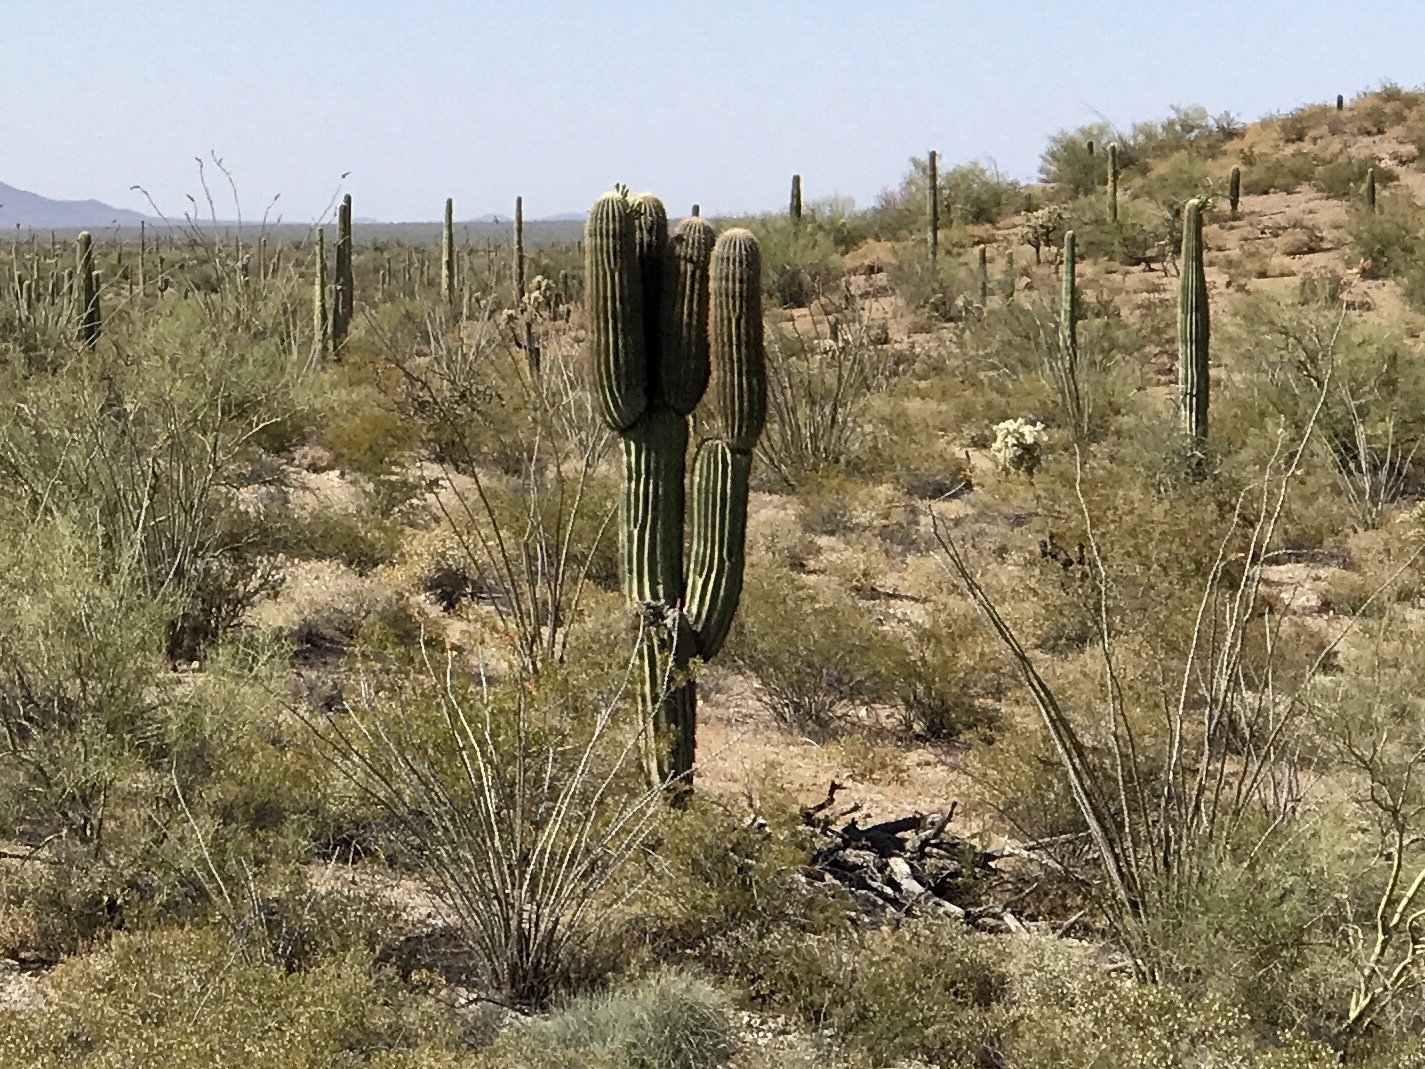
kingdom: Plantae
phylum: Tracheophyta
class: Magnoliopsida
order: Caryophyllales
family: Cactaceae
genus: Carnegiea
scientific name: Carnegiea gigantea
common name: Saguaro
